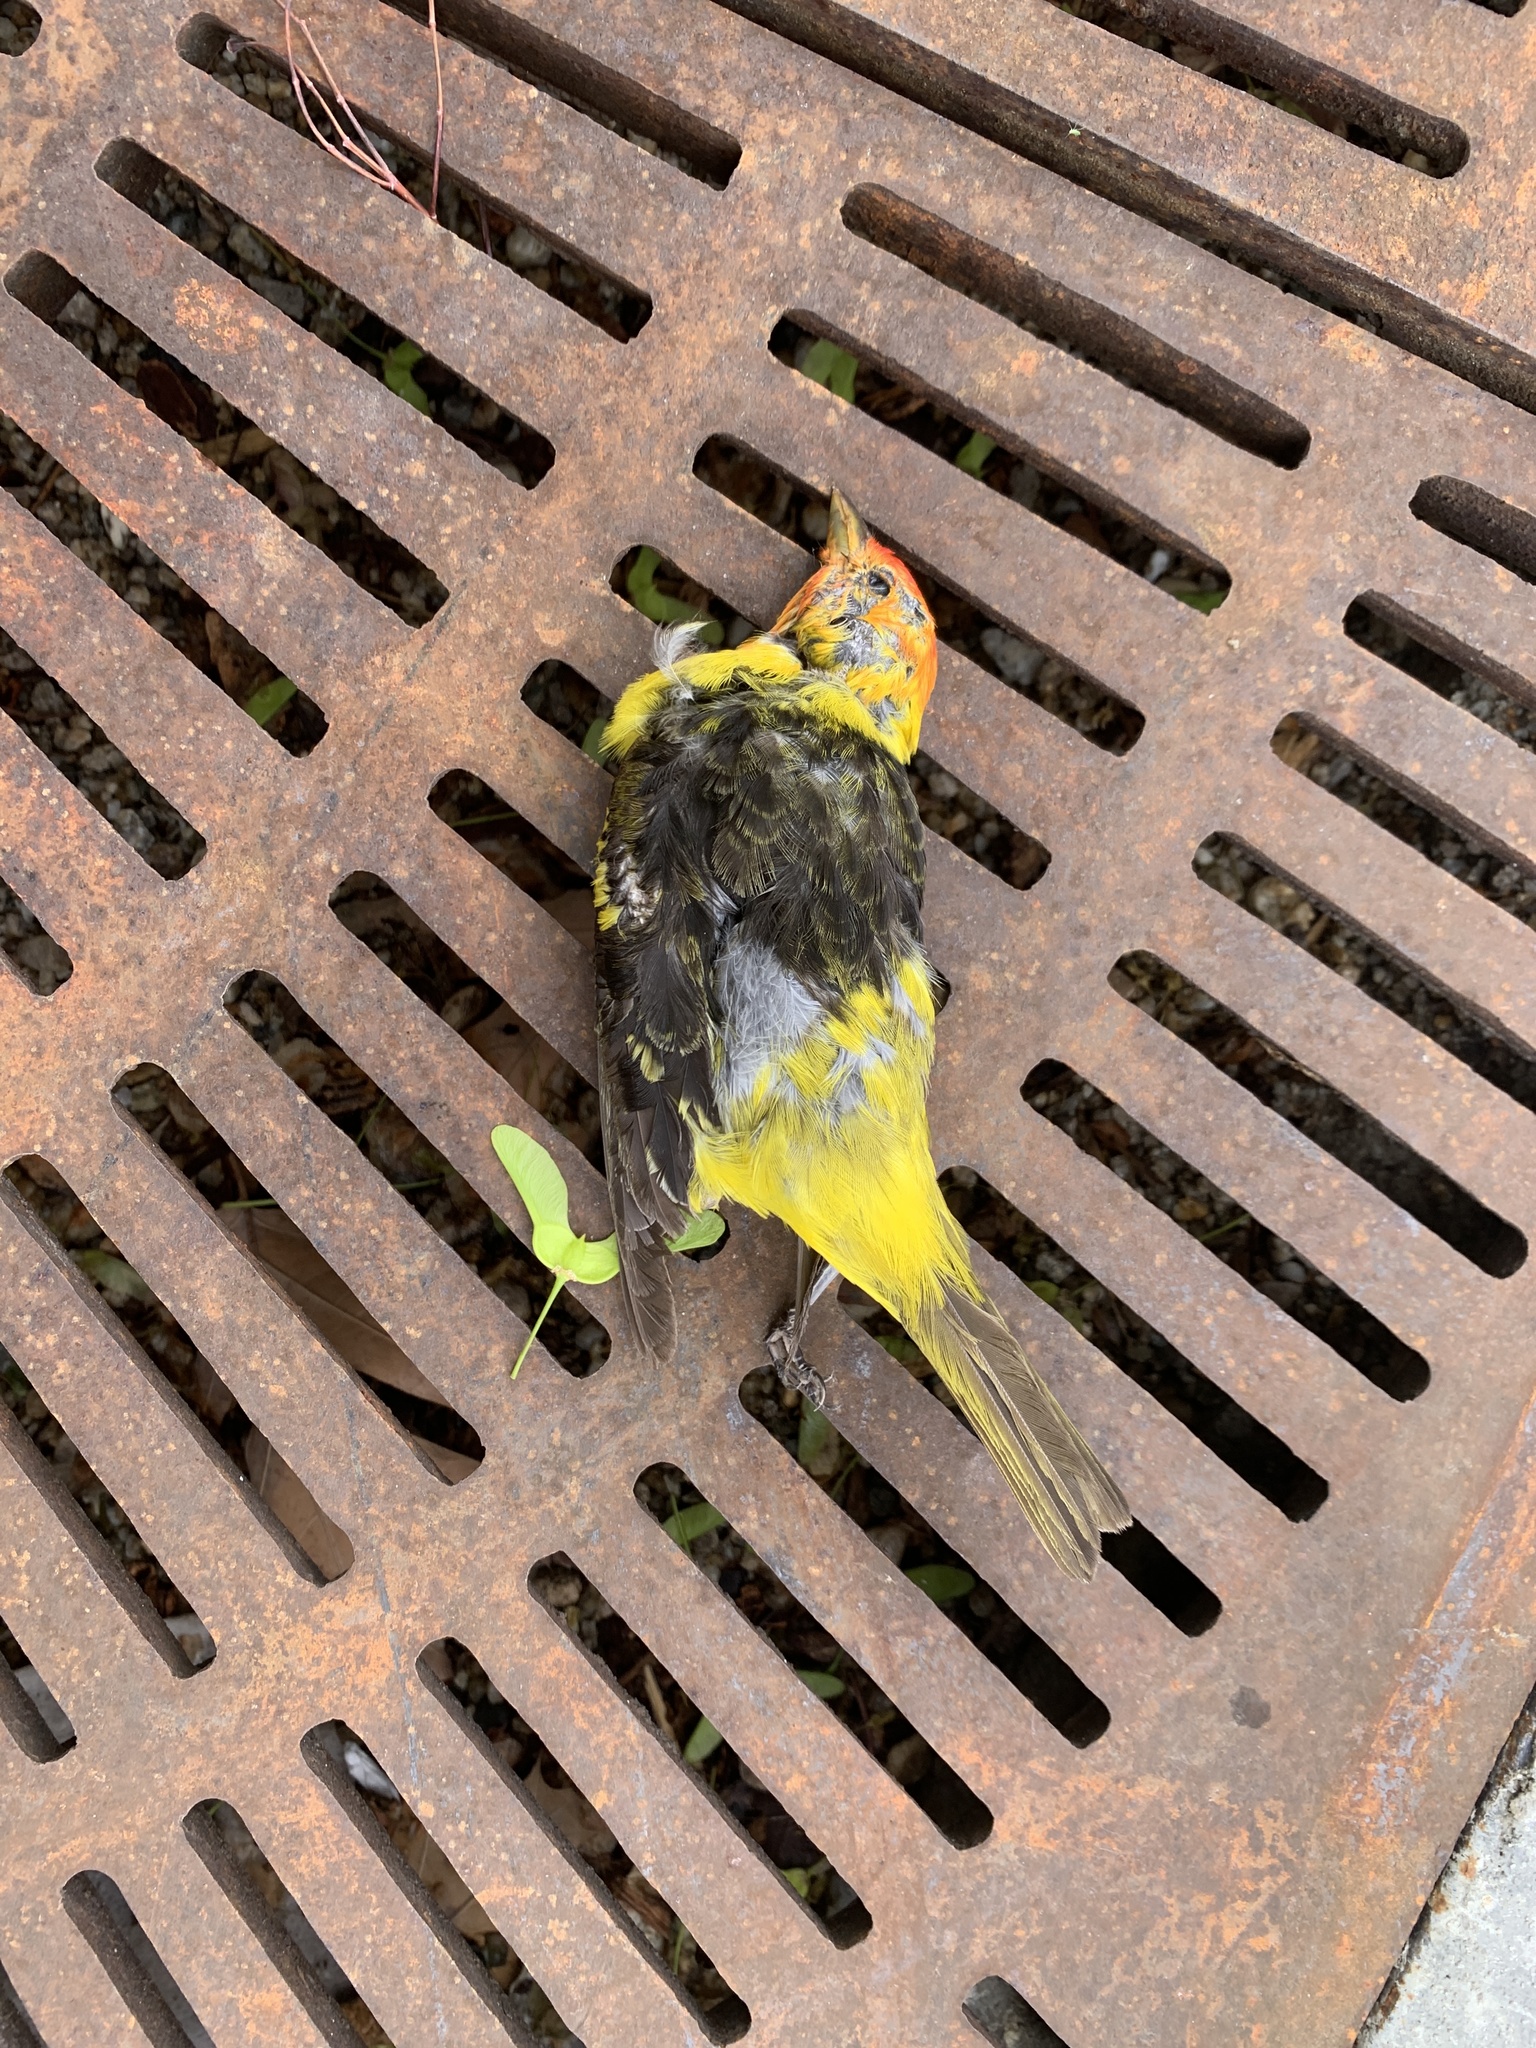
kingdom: Animalia
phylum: Chordata
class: Aves
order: Passeriformes
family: Cardinalidae
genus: Piranga
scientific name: Piranga ludoviciana
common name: Western tanager
